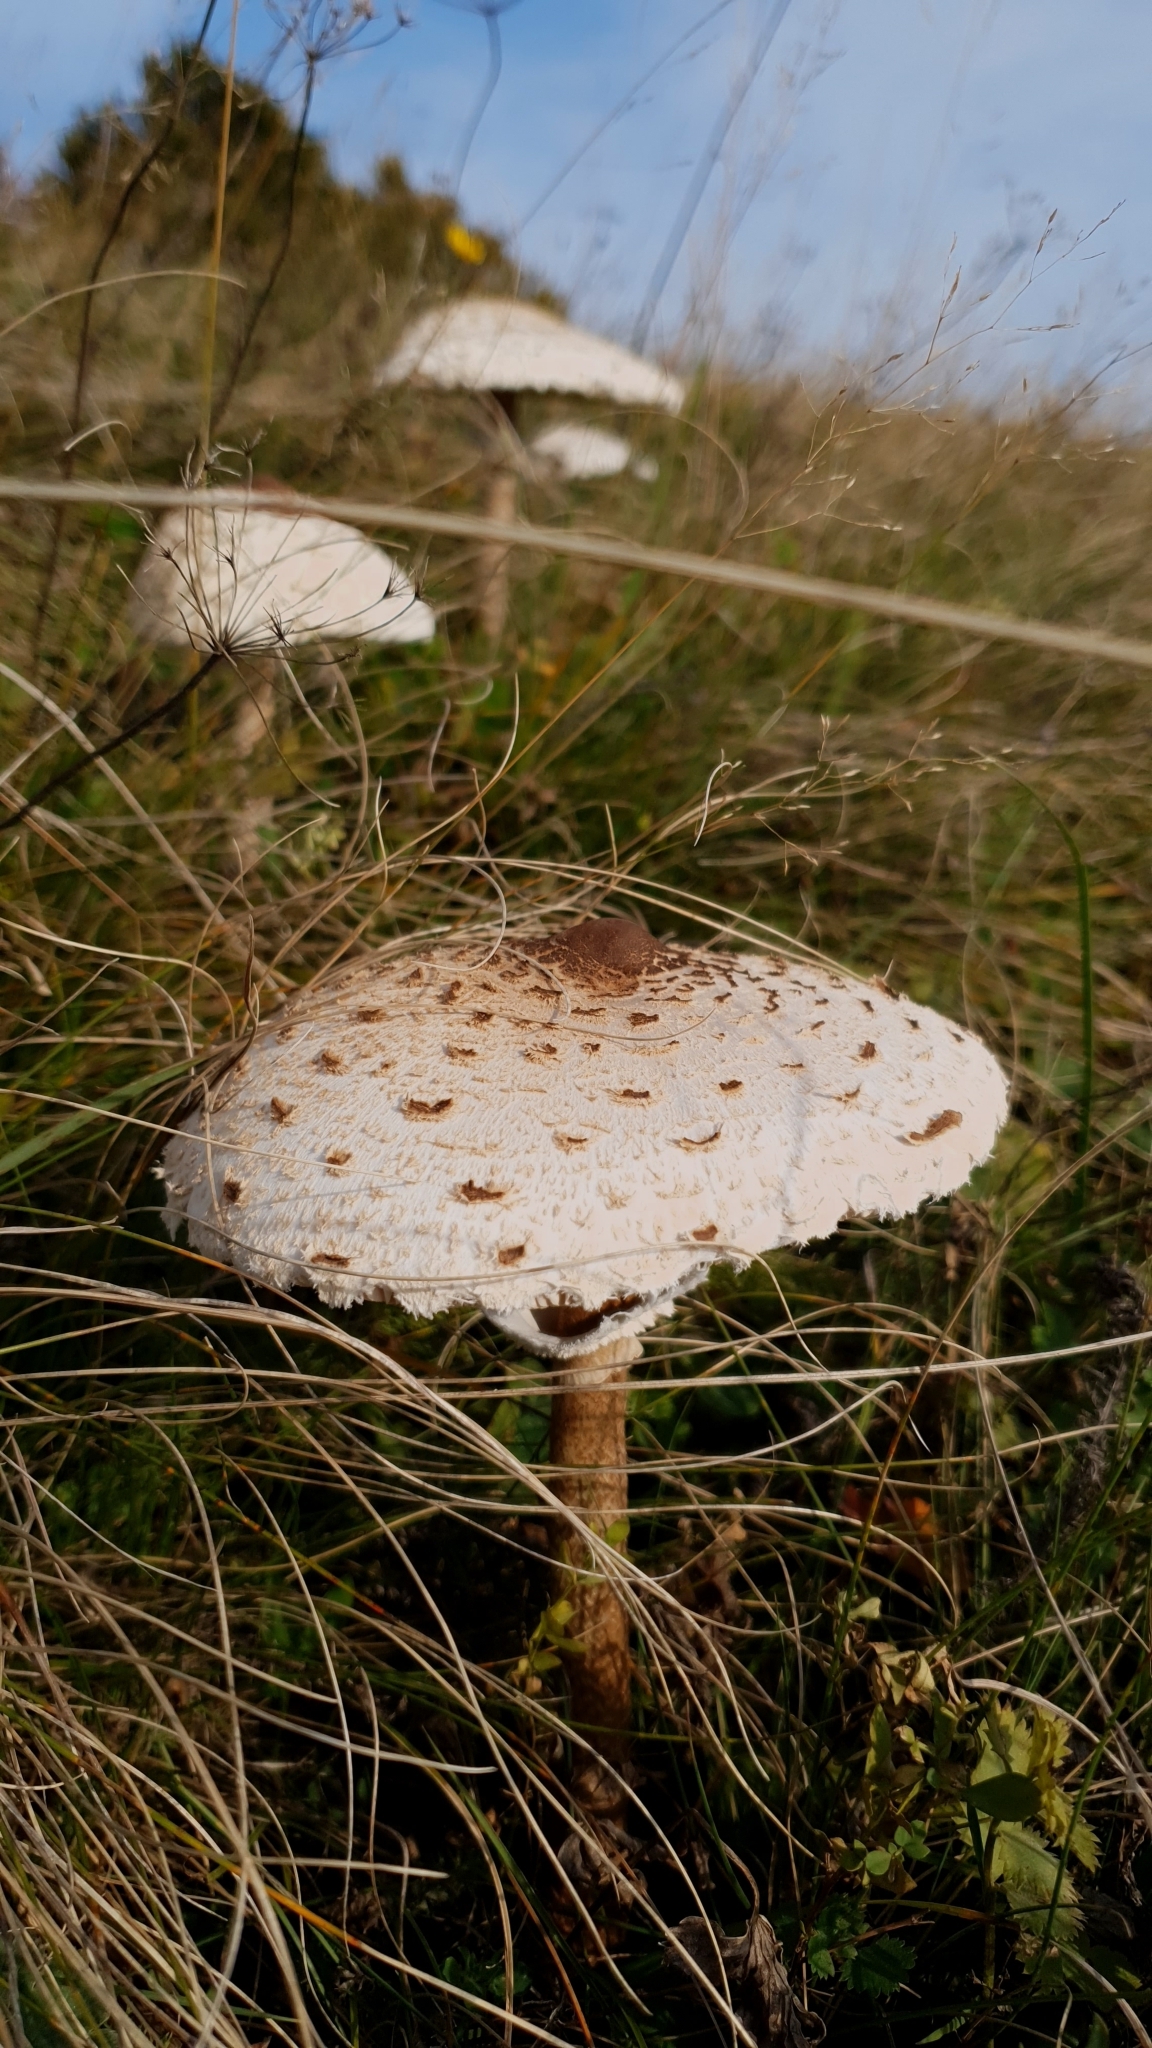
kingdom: Fungi
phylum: Basidiomycota
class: Agaricomycetes
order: Agaricales
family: Agaricaceae
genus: Macrolepiota
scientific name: Macrolepiota procera
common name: Parasol
